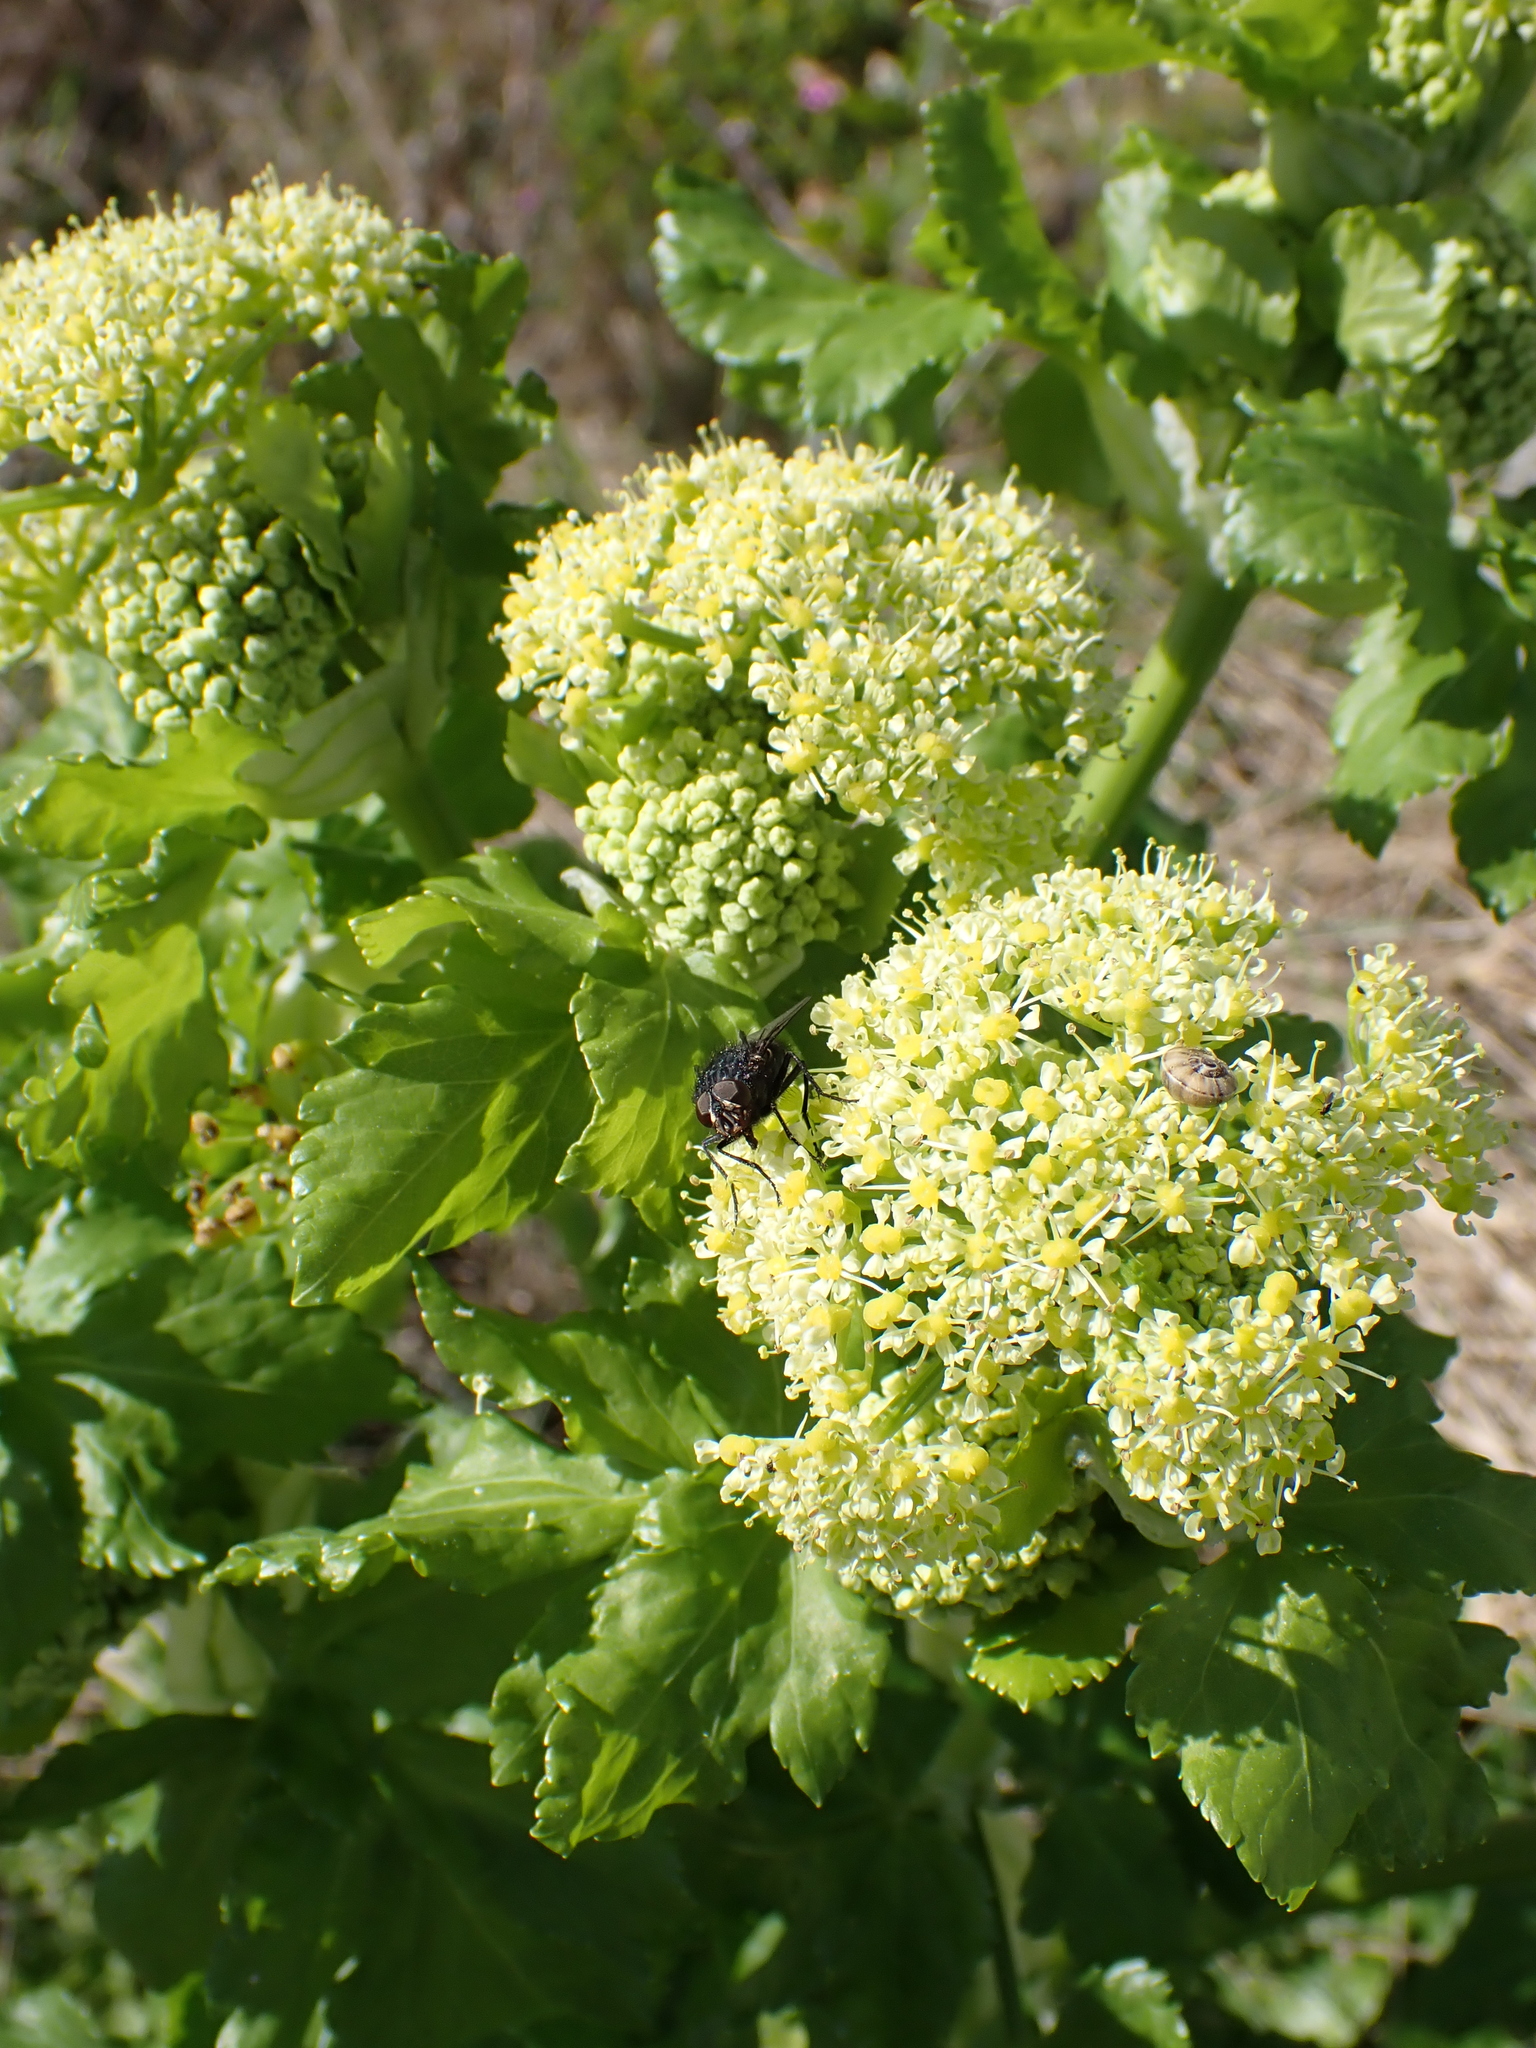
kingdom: Plantae
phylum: Tracheophyta
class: Magnoliopsida
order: Apiales
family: Apiaceae
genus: Smyrnium
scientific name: Smyrnium olusatrum
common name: Alexanders
